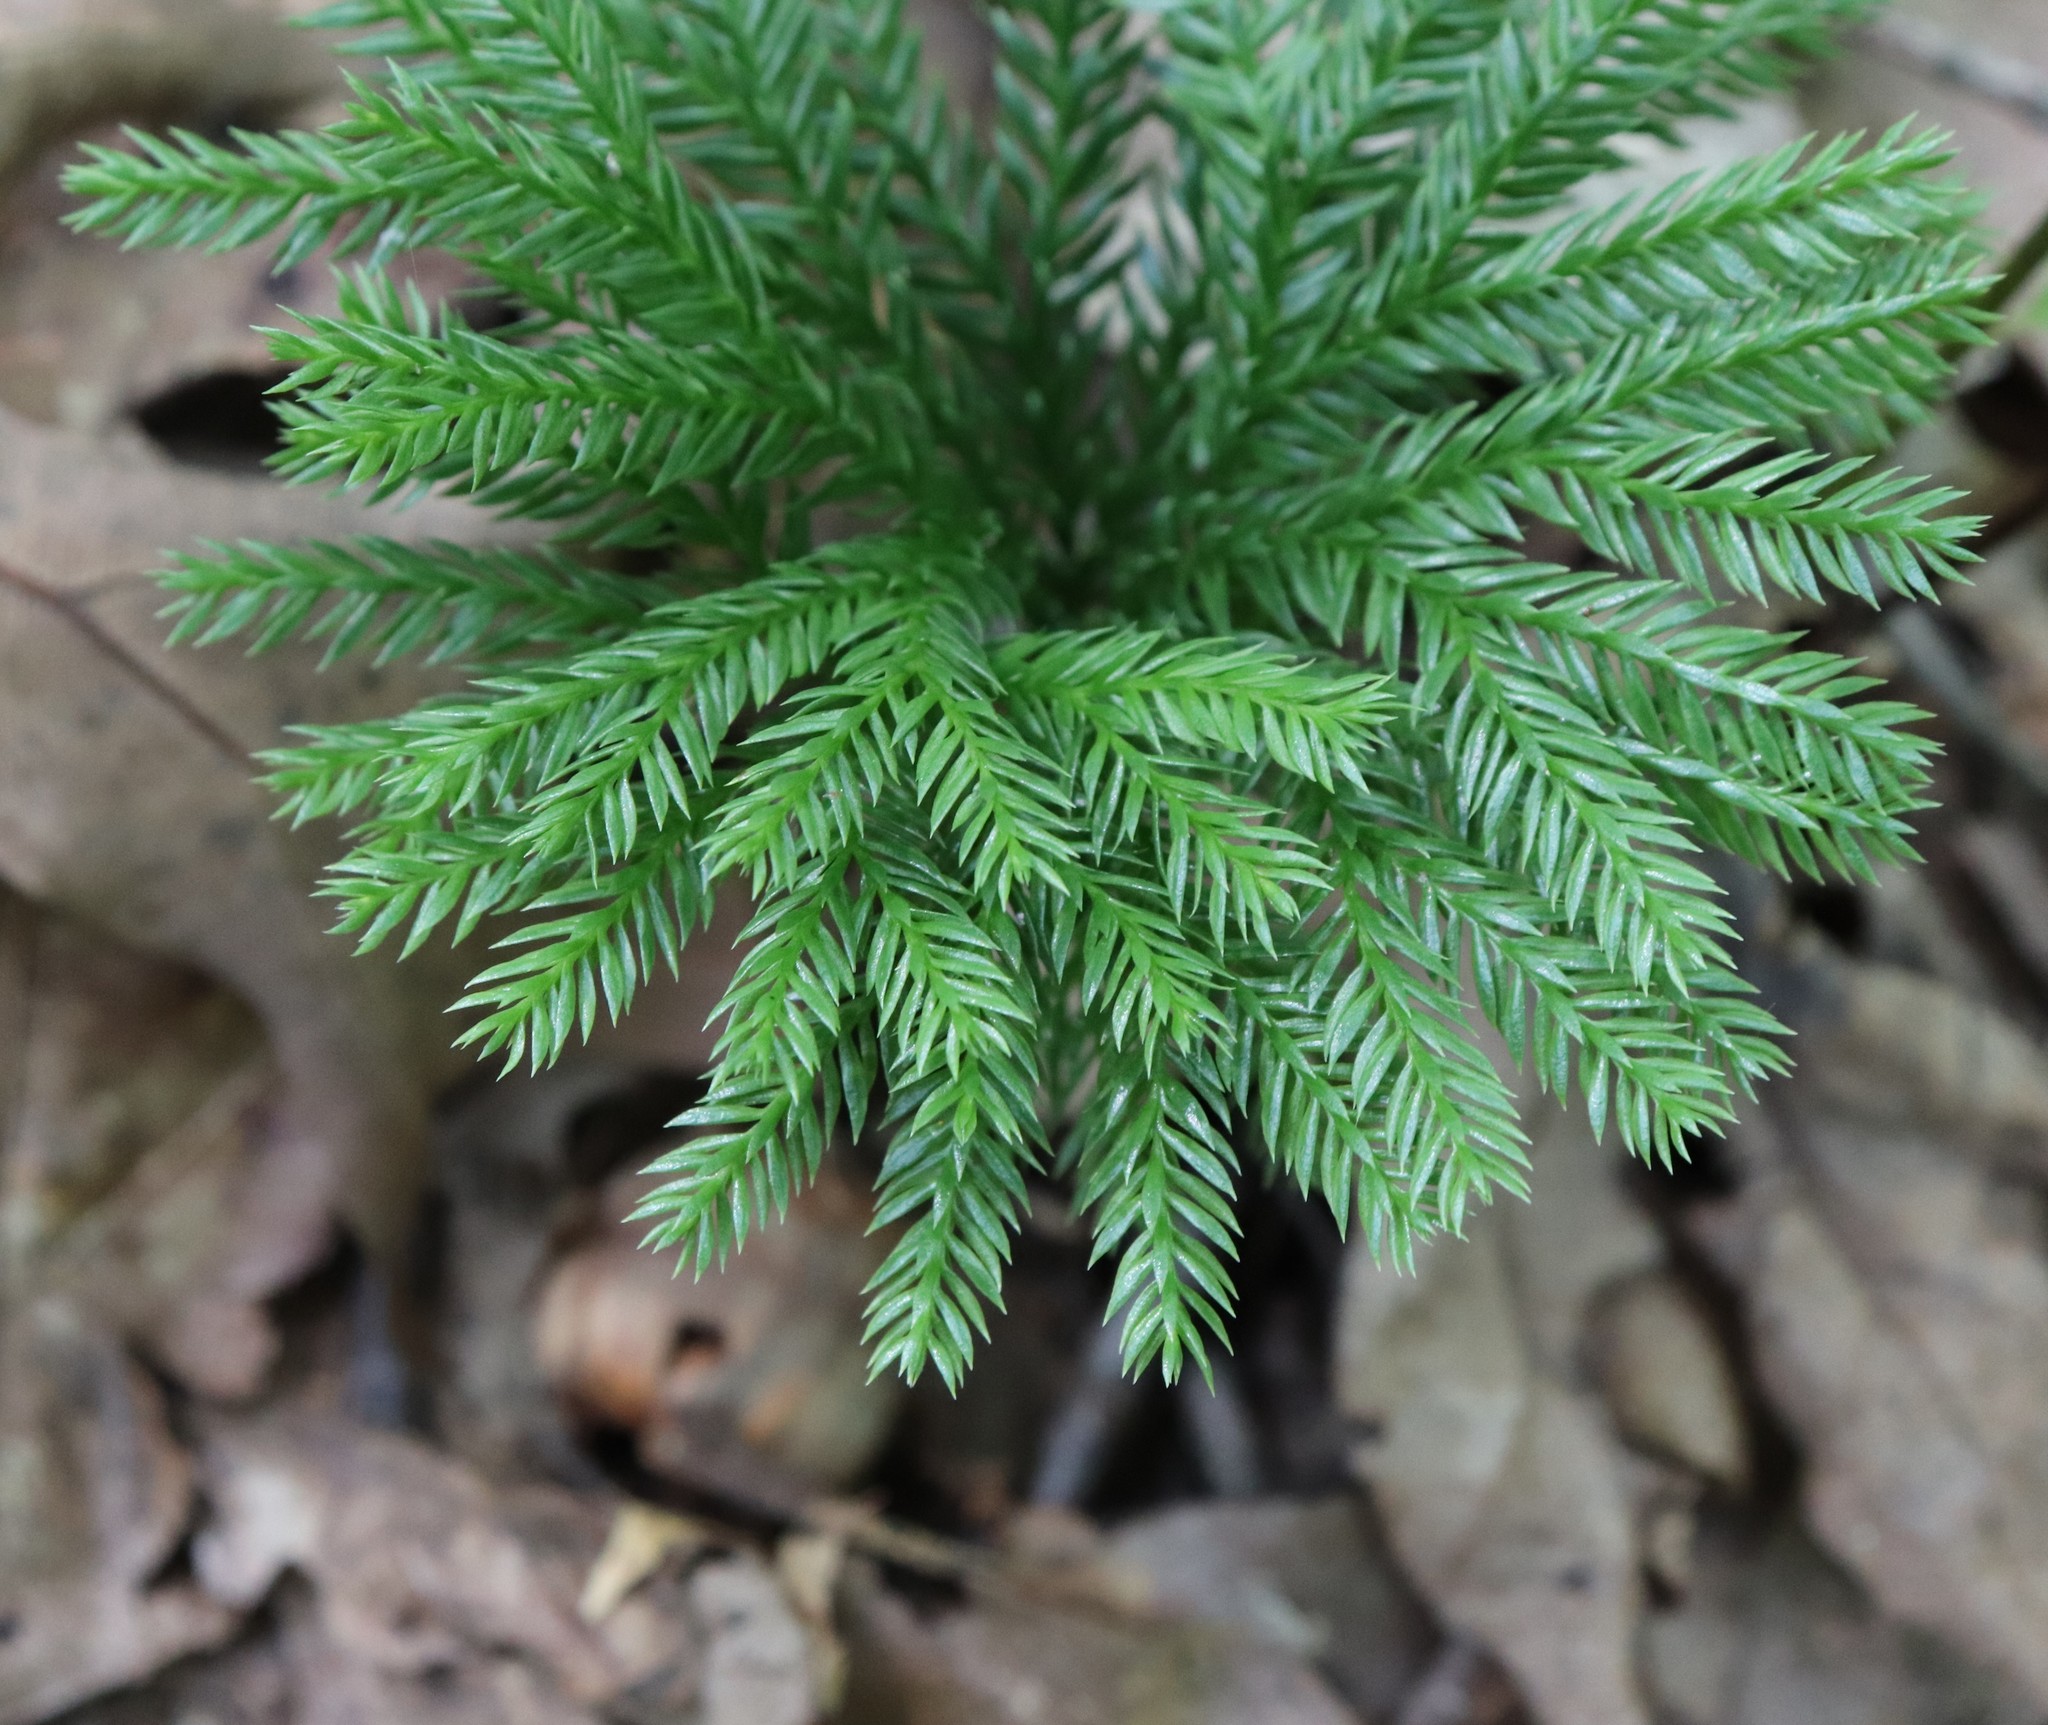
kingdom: Plantae
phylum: Tracheophyta
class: Lycopodiopsida
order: Lycopodiales
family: Lycopodiaceae
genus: Dendrolycopodium
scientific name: Dendrolycopodium obscurum
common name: Common ground-pine
